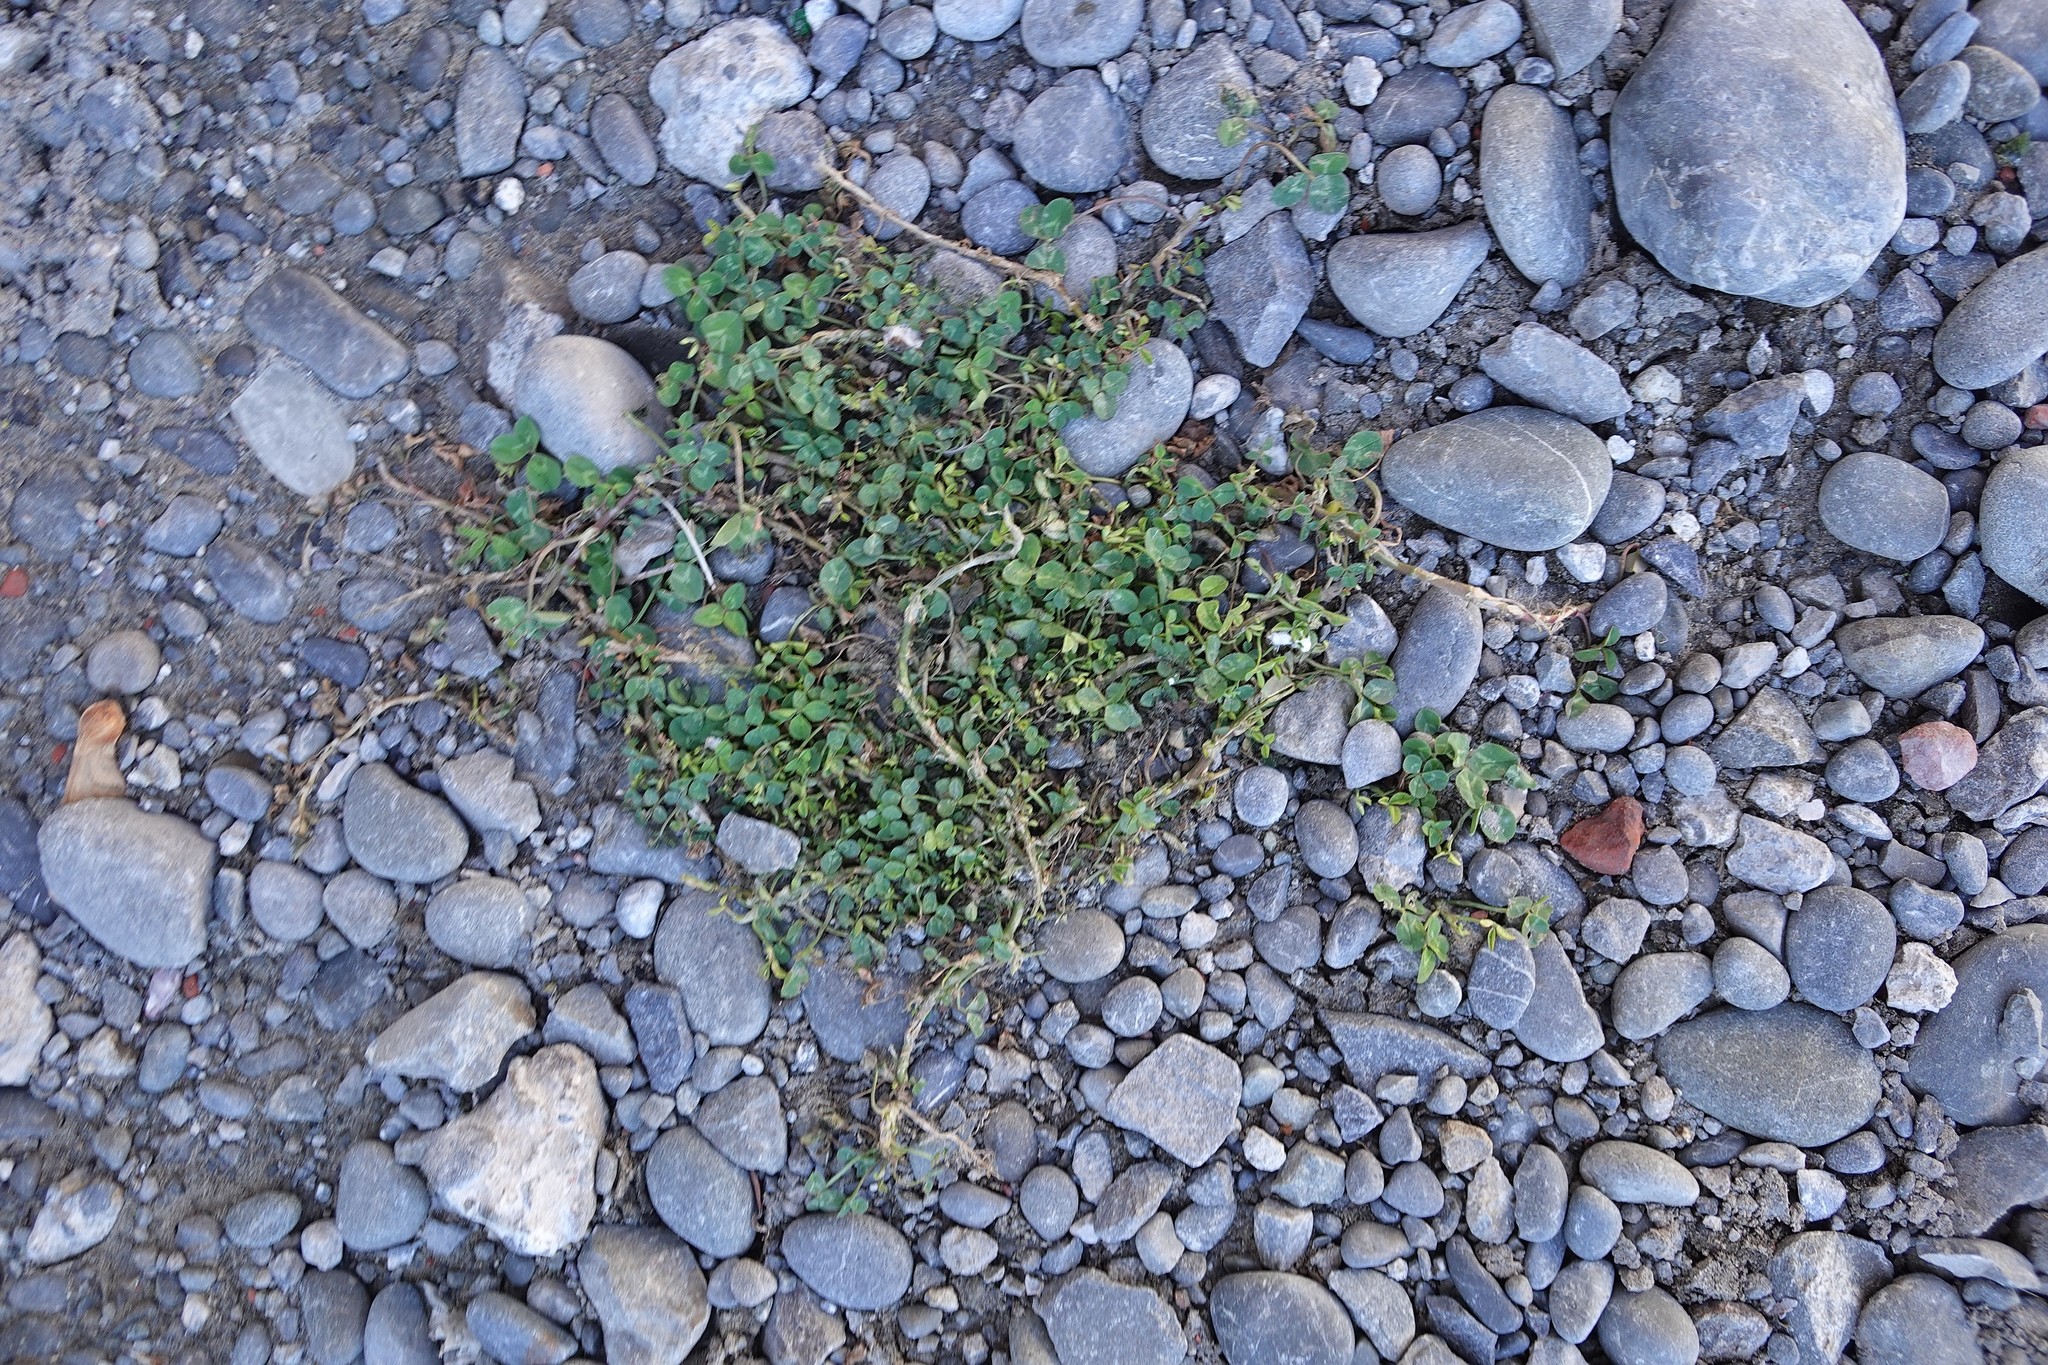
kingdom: Plantae
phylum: Tracheophyta
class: Magnoliopsida
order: Fabales
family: Fabaceae
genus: Trifolium
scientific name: Trifolium repens
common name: White clover
